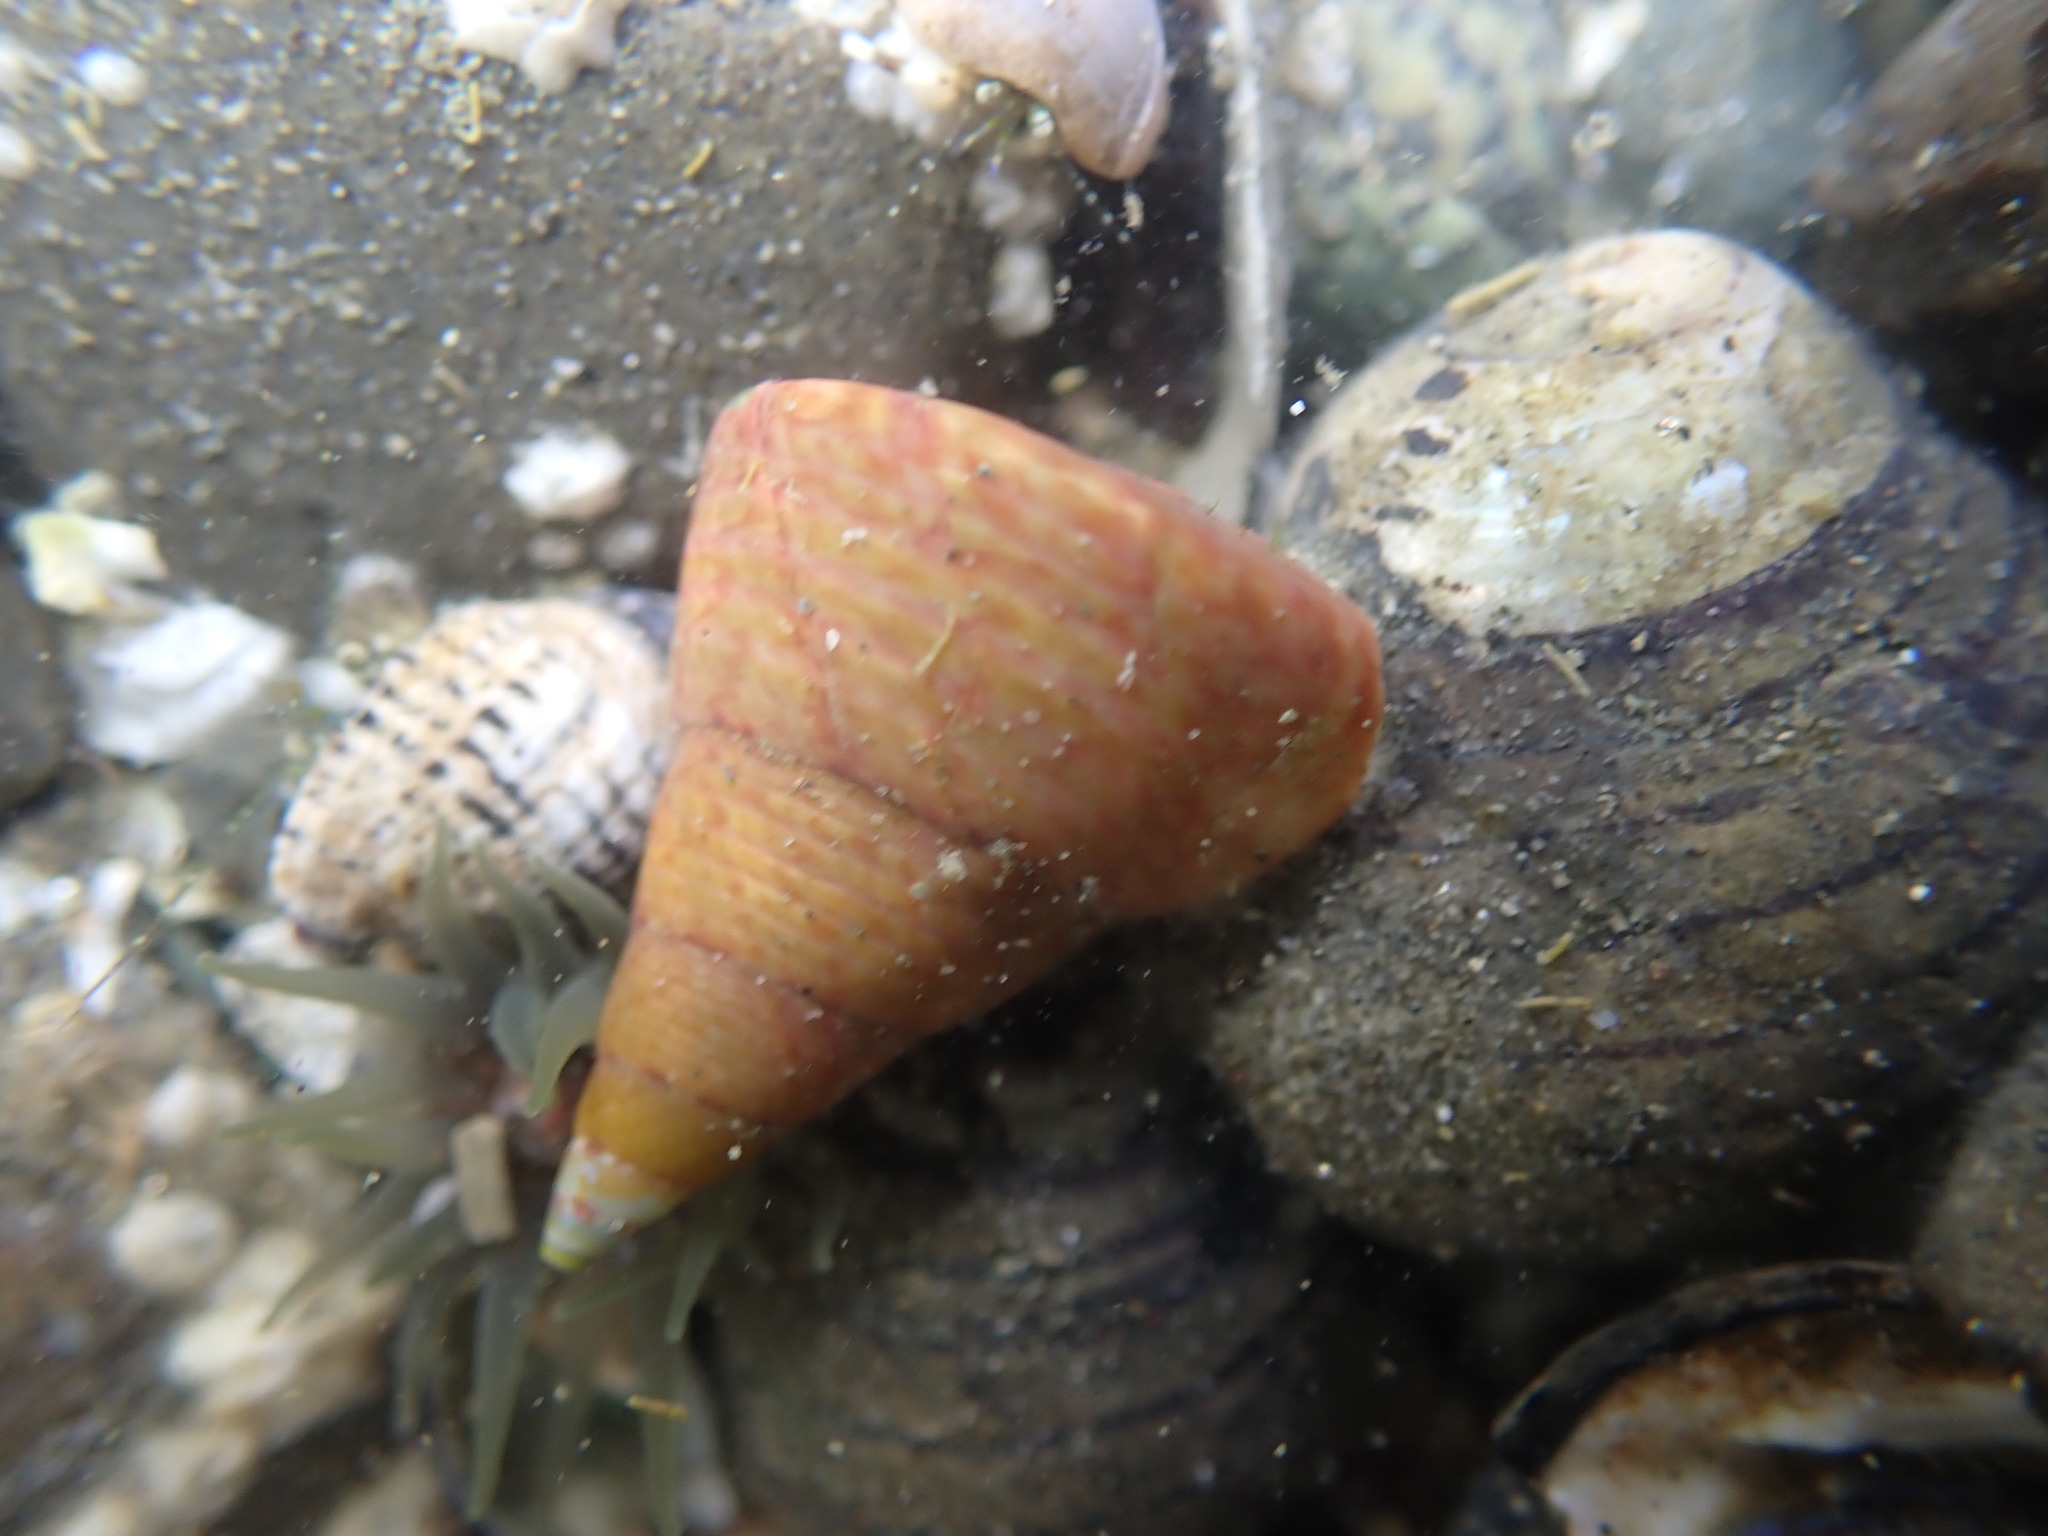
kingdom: Animalia
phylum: Mollusca
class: Gastropoda
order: Trochida
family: Trochidae
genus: Cantharidus
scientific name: Cantharidus opalus
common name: Opal jewel topsnail
